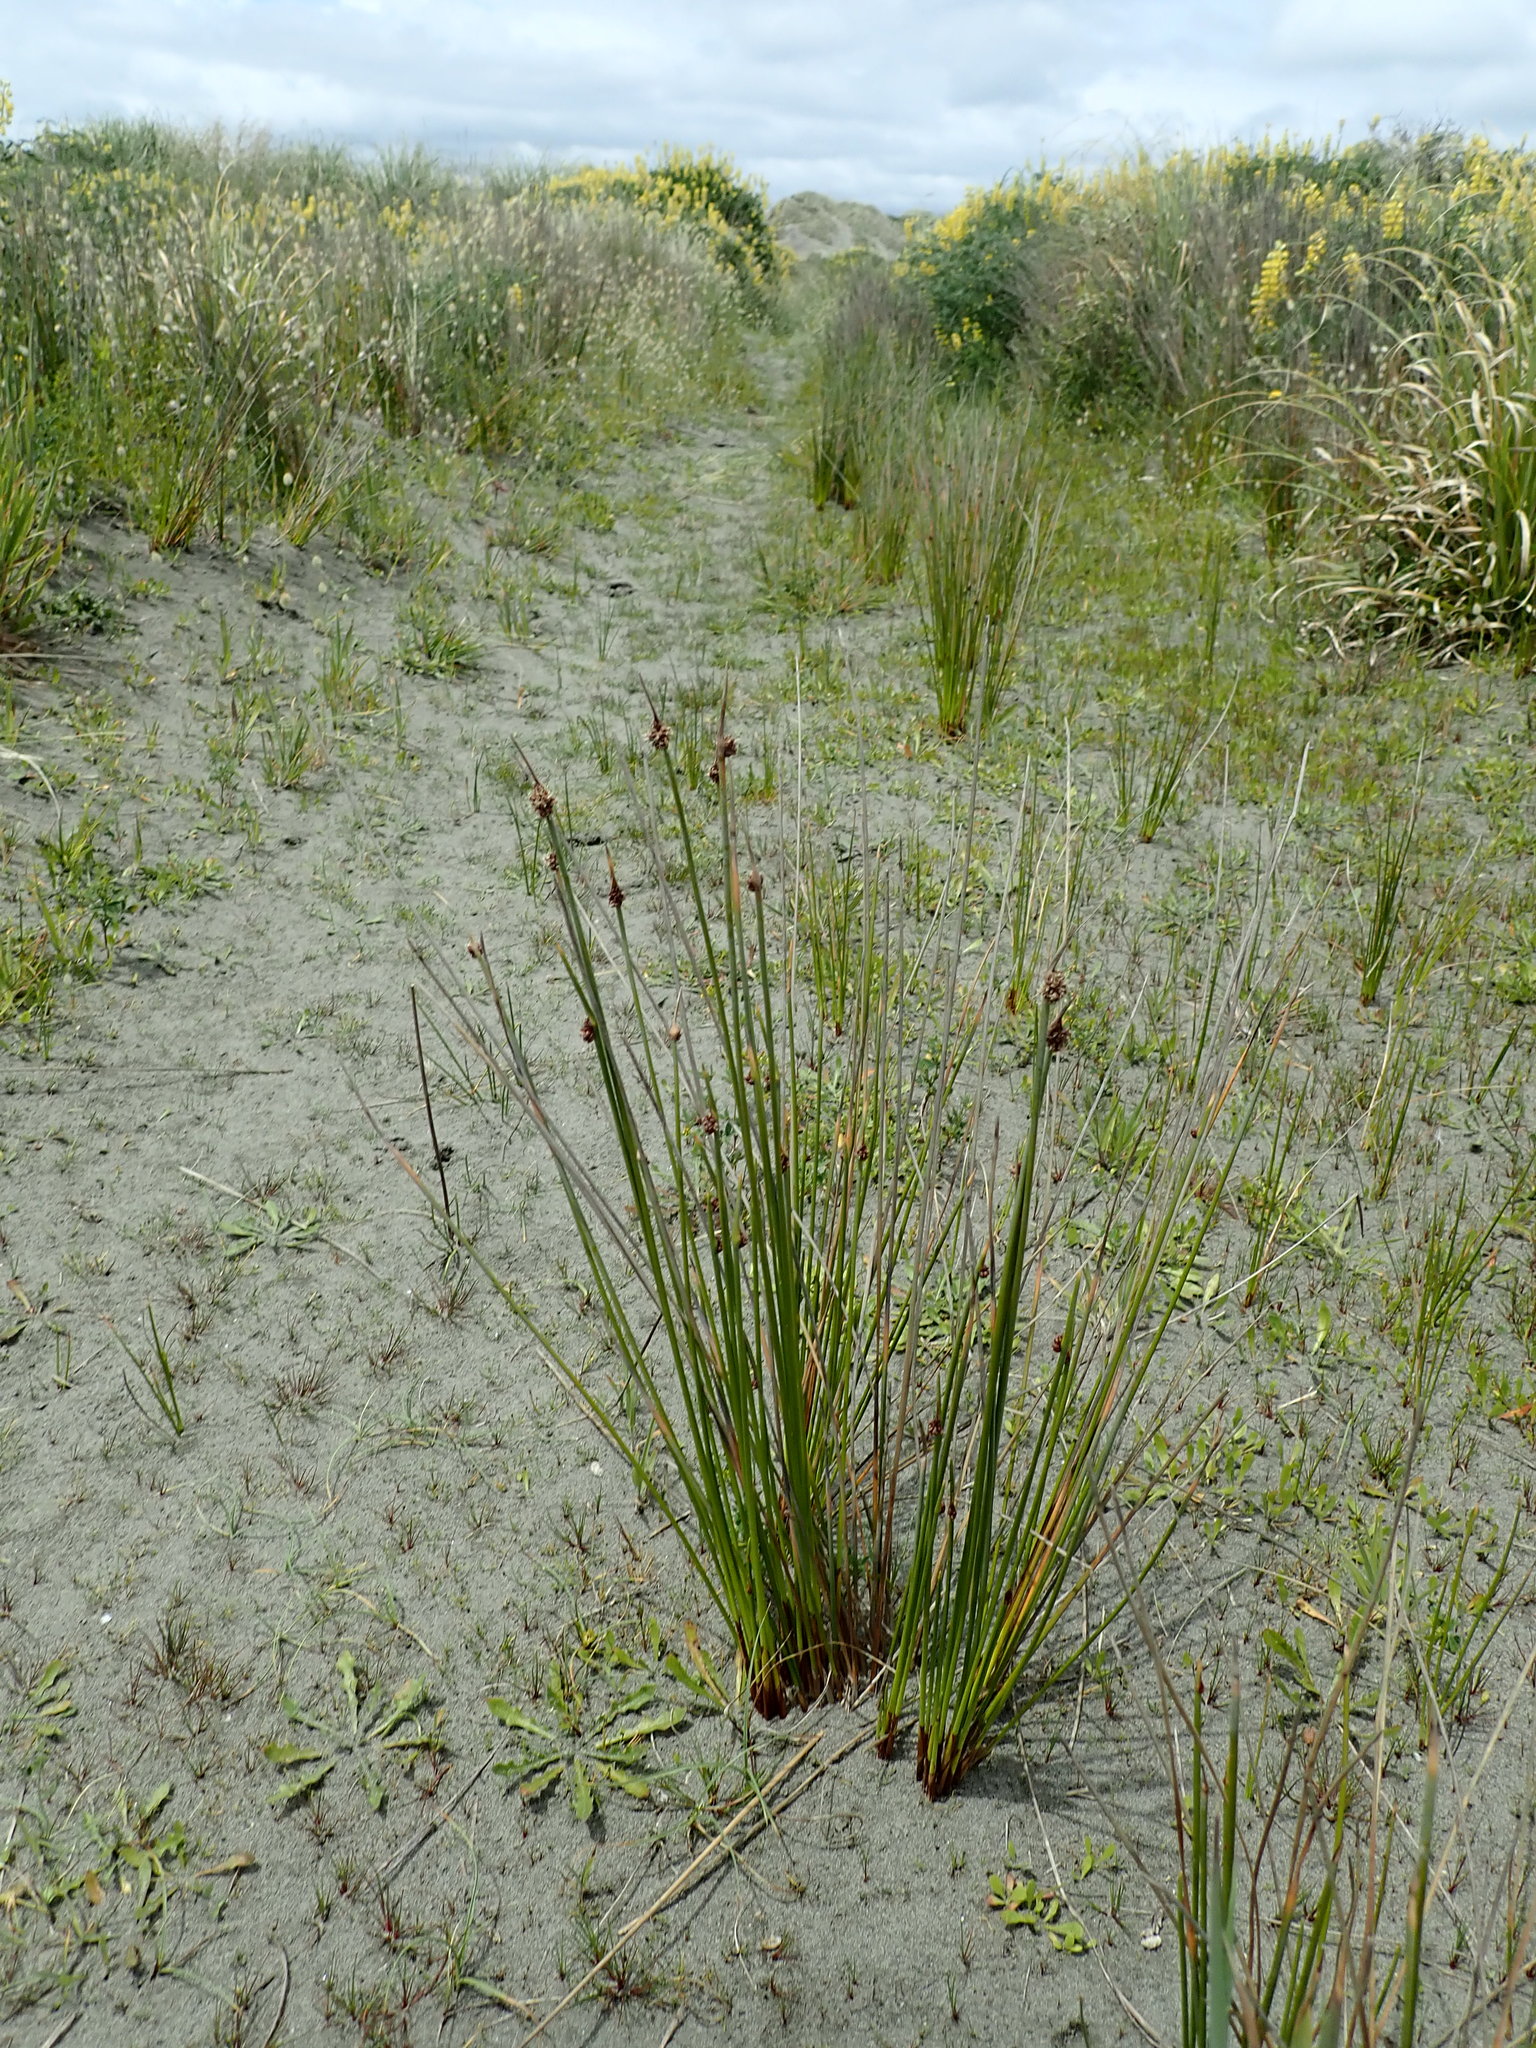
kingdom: Plantae
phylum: Tracheophyta
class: Liliopsida
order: Poales
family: Cyperaceae
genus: Ficinia
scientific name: Ficinia nodosa
